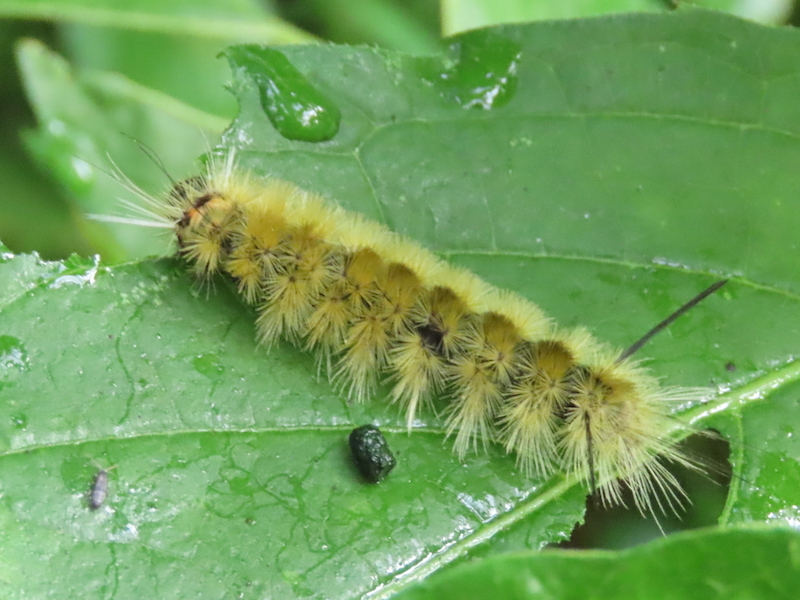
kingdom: Animalia
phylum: Arthropoda
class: Insecta
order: Lepidoptera
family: Erebidae
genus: Halysidota
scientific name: Halysidota tessellaris
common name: Banded tussock moth
